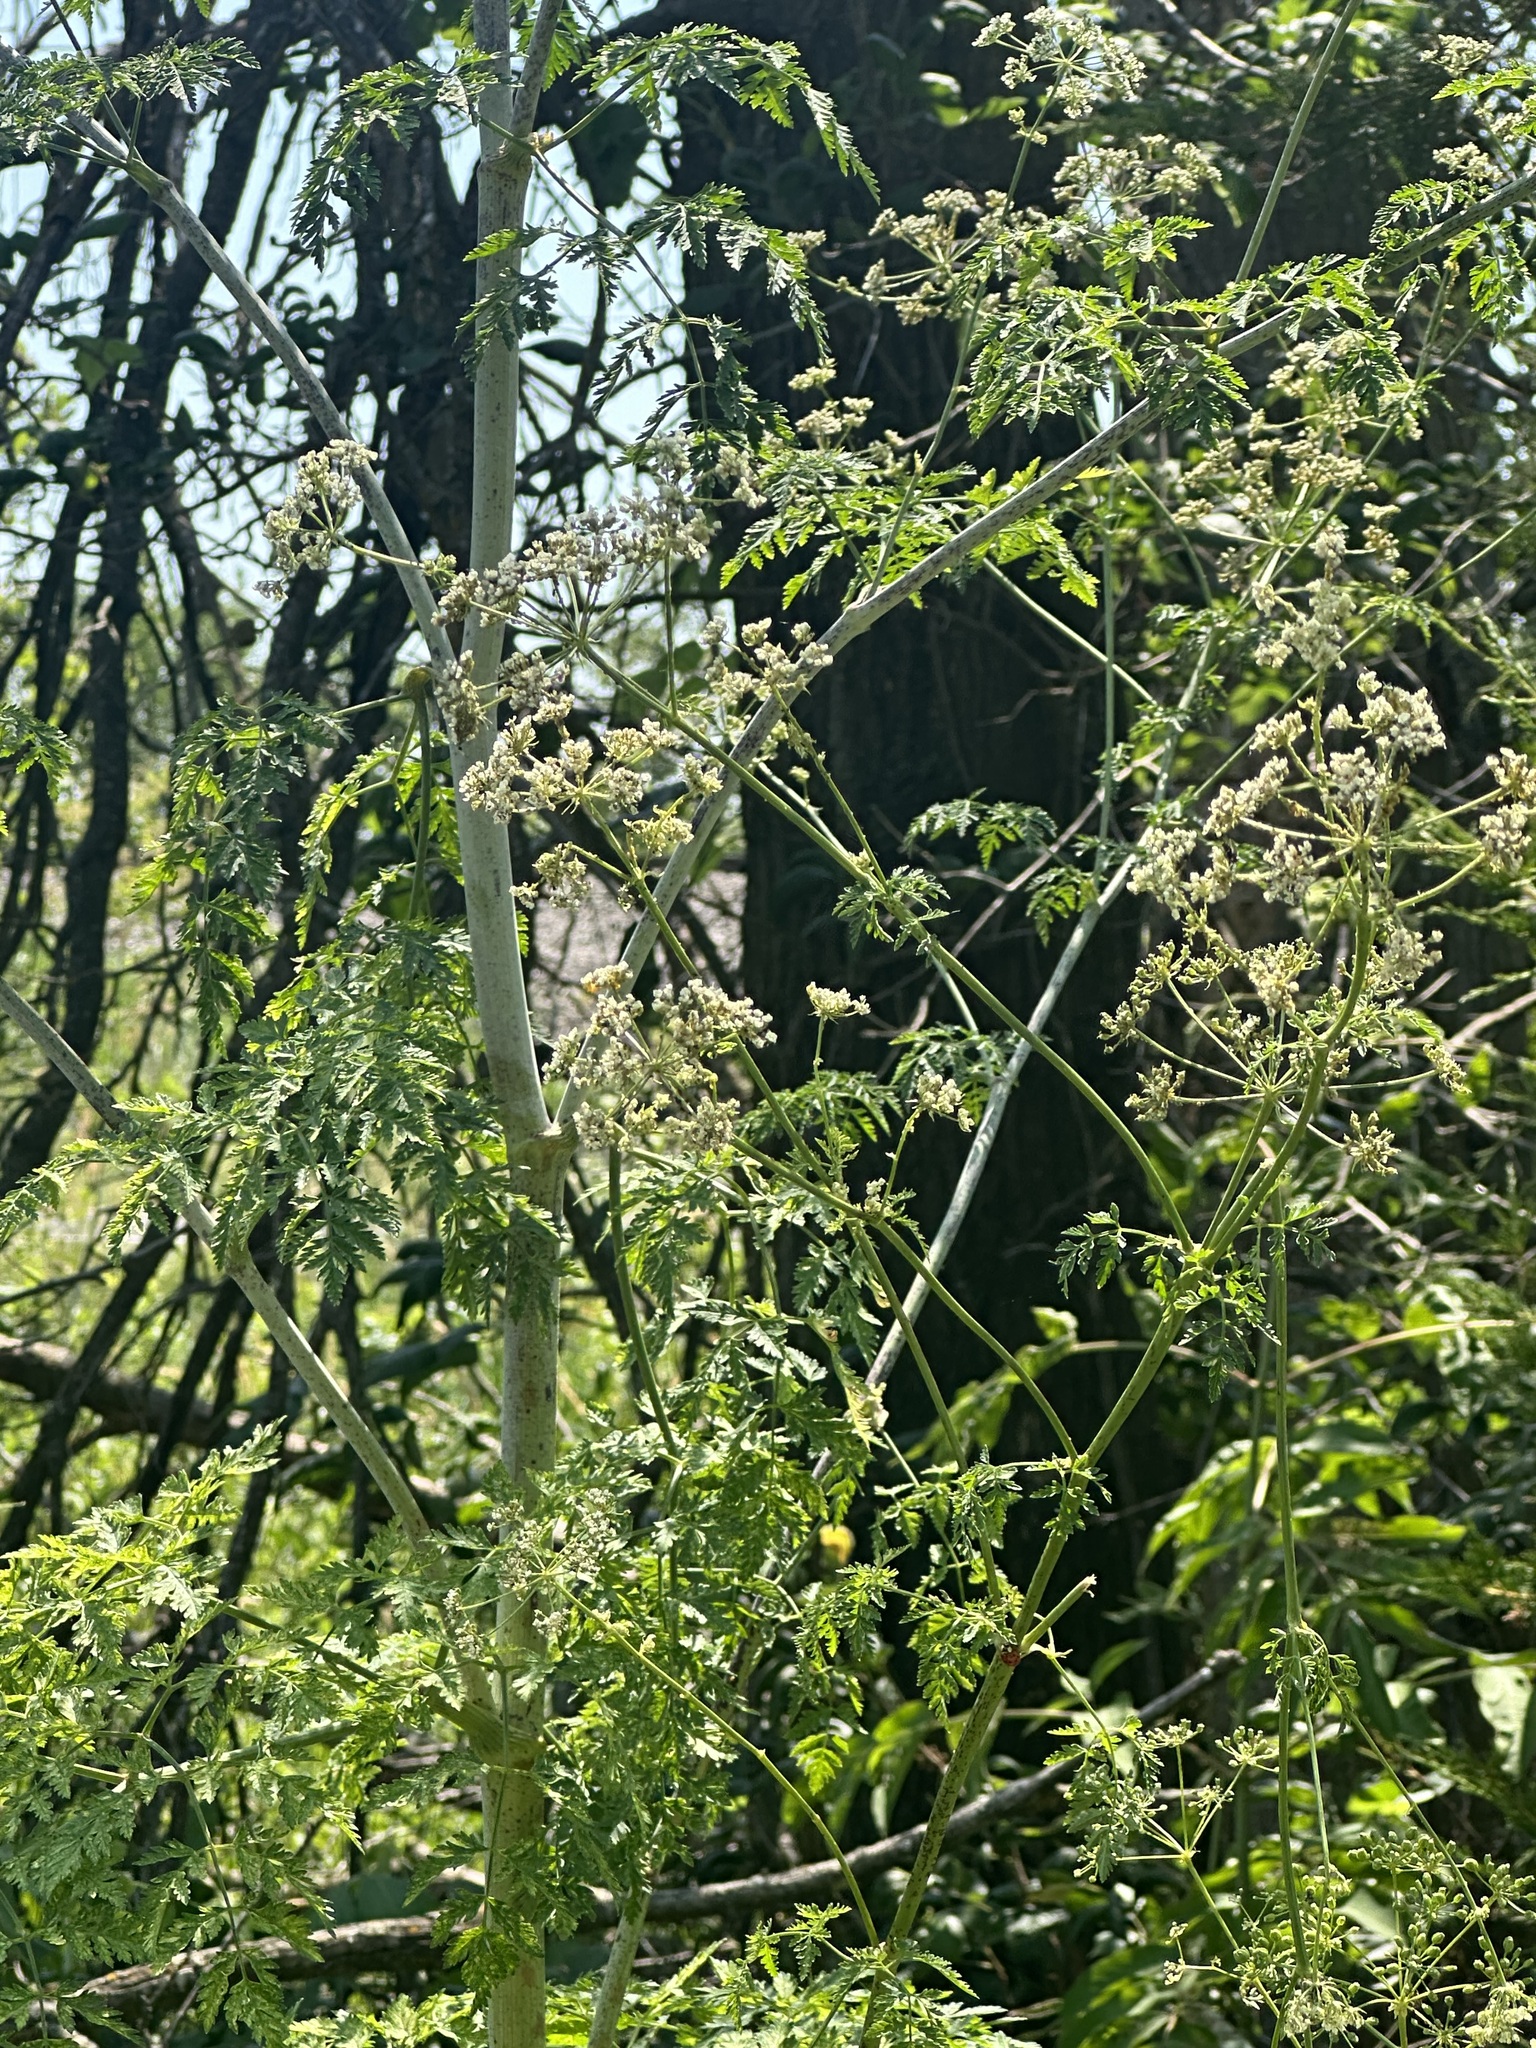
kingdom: Plantae
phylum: Tracheophyta
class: Magnoliopsida
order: Apiales
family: Apiaceae
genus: Conium
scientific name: Conium maculatum
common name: Hemlock
